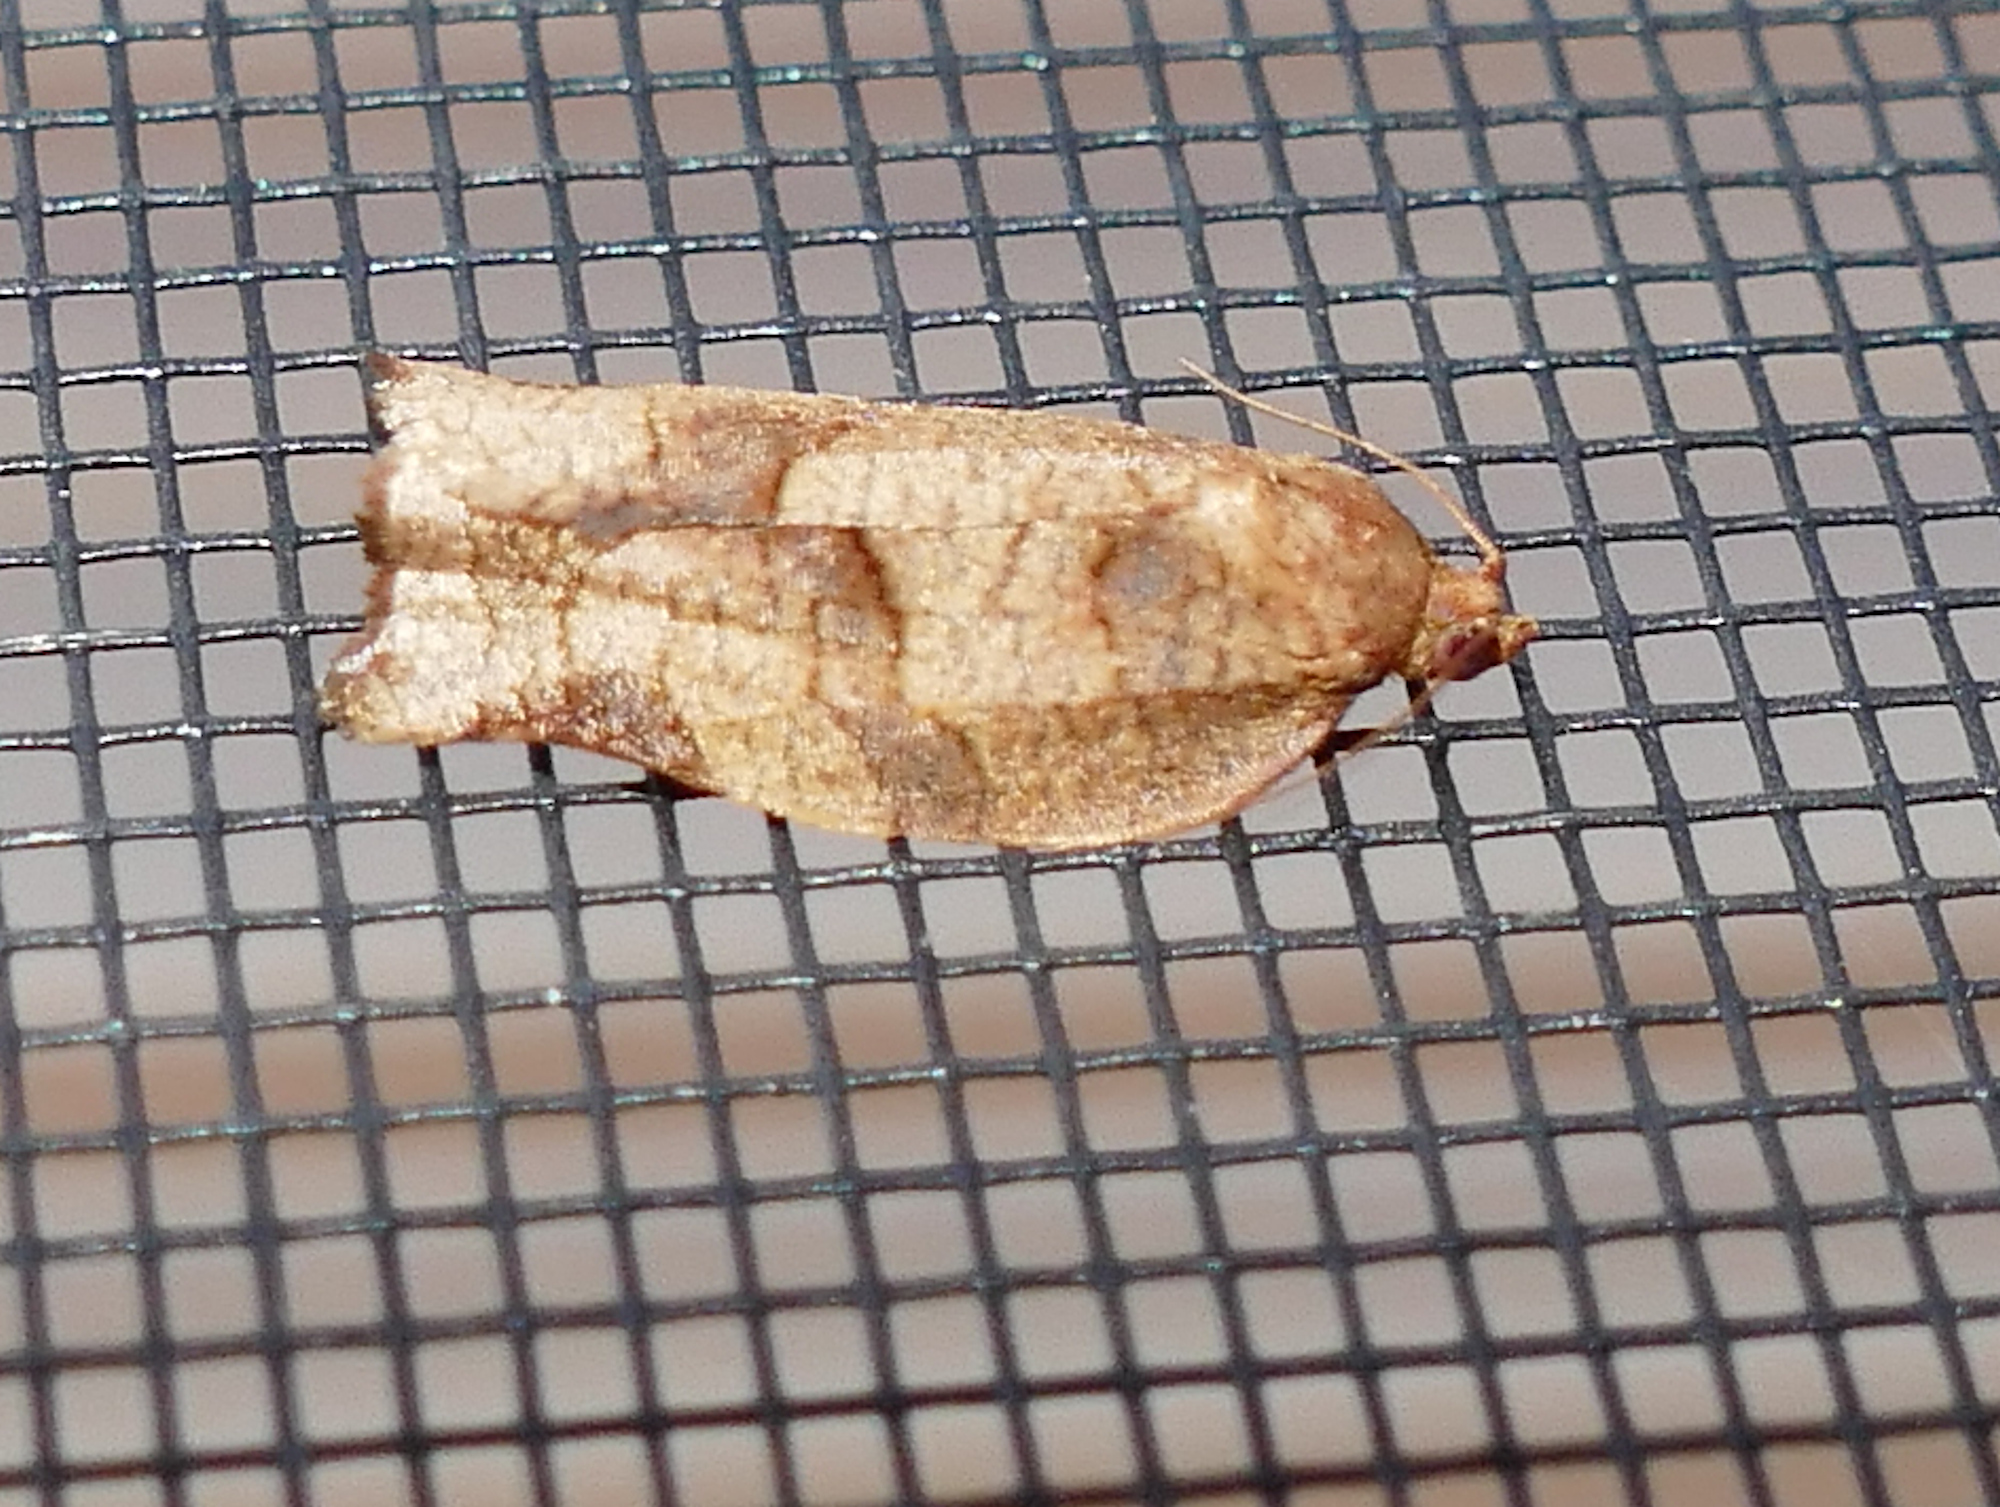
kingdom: Animalia
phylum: Arthropoda
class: Insecta
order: Lepidoptera
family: Tortricidae
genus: Choristoneura
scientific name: Choristoneura rosaceana
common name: Oblique-banded leafroller moth
